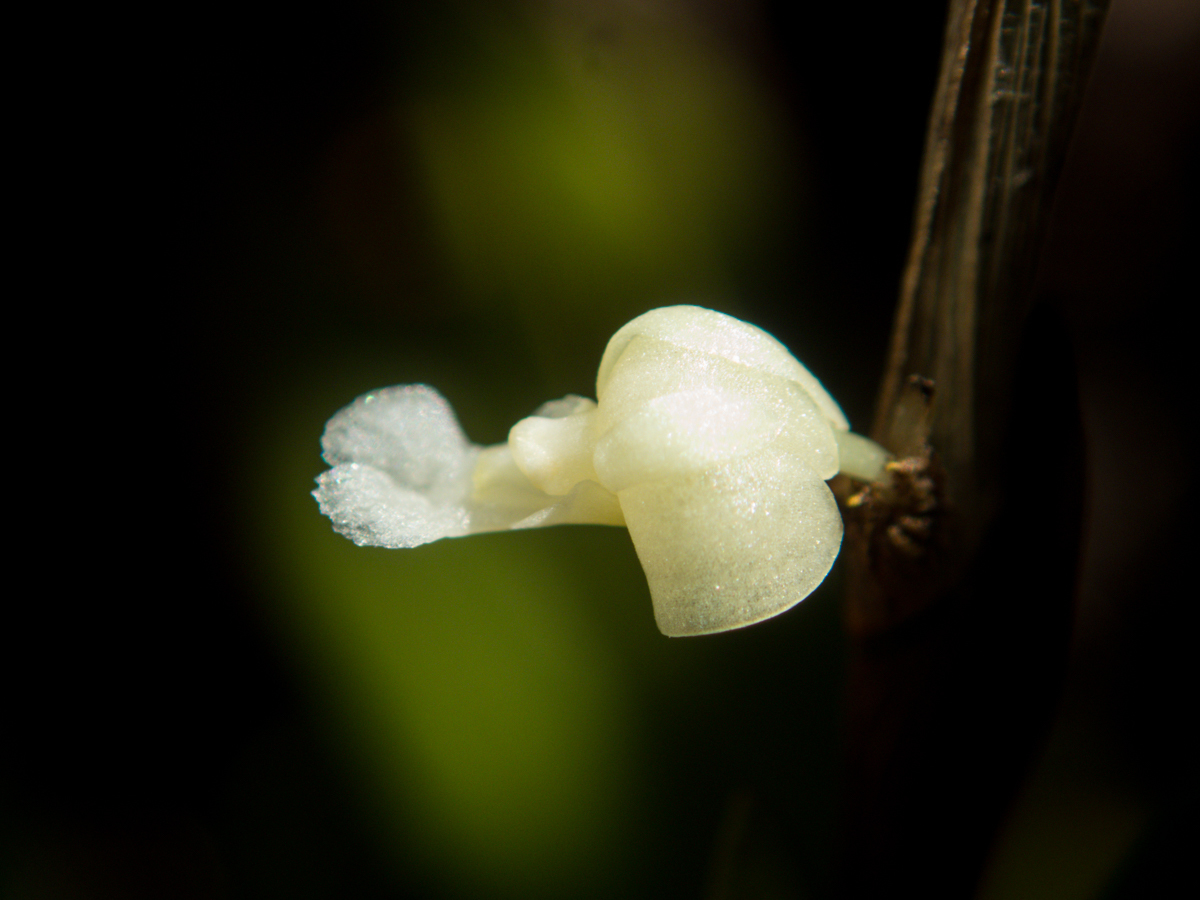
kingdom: Plantae
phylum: Tracheophyta
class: Liliopsida
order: Asparagales
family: Orchidaceae
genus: Dendrobium
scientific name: Dendrobium aloifolium
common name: Aloe-like dendrobium
